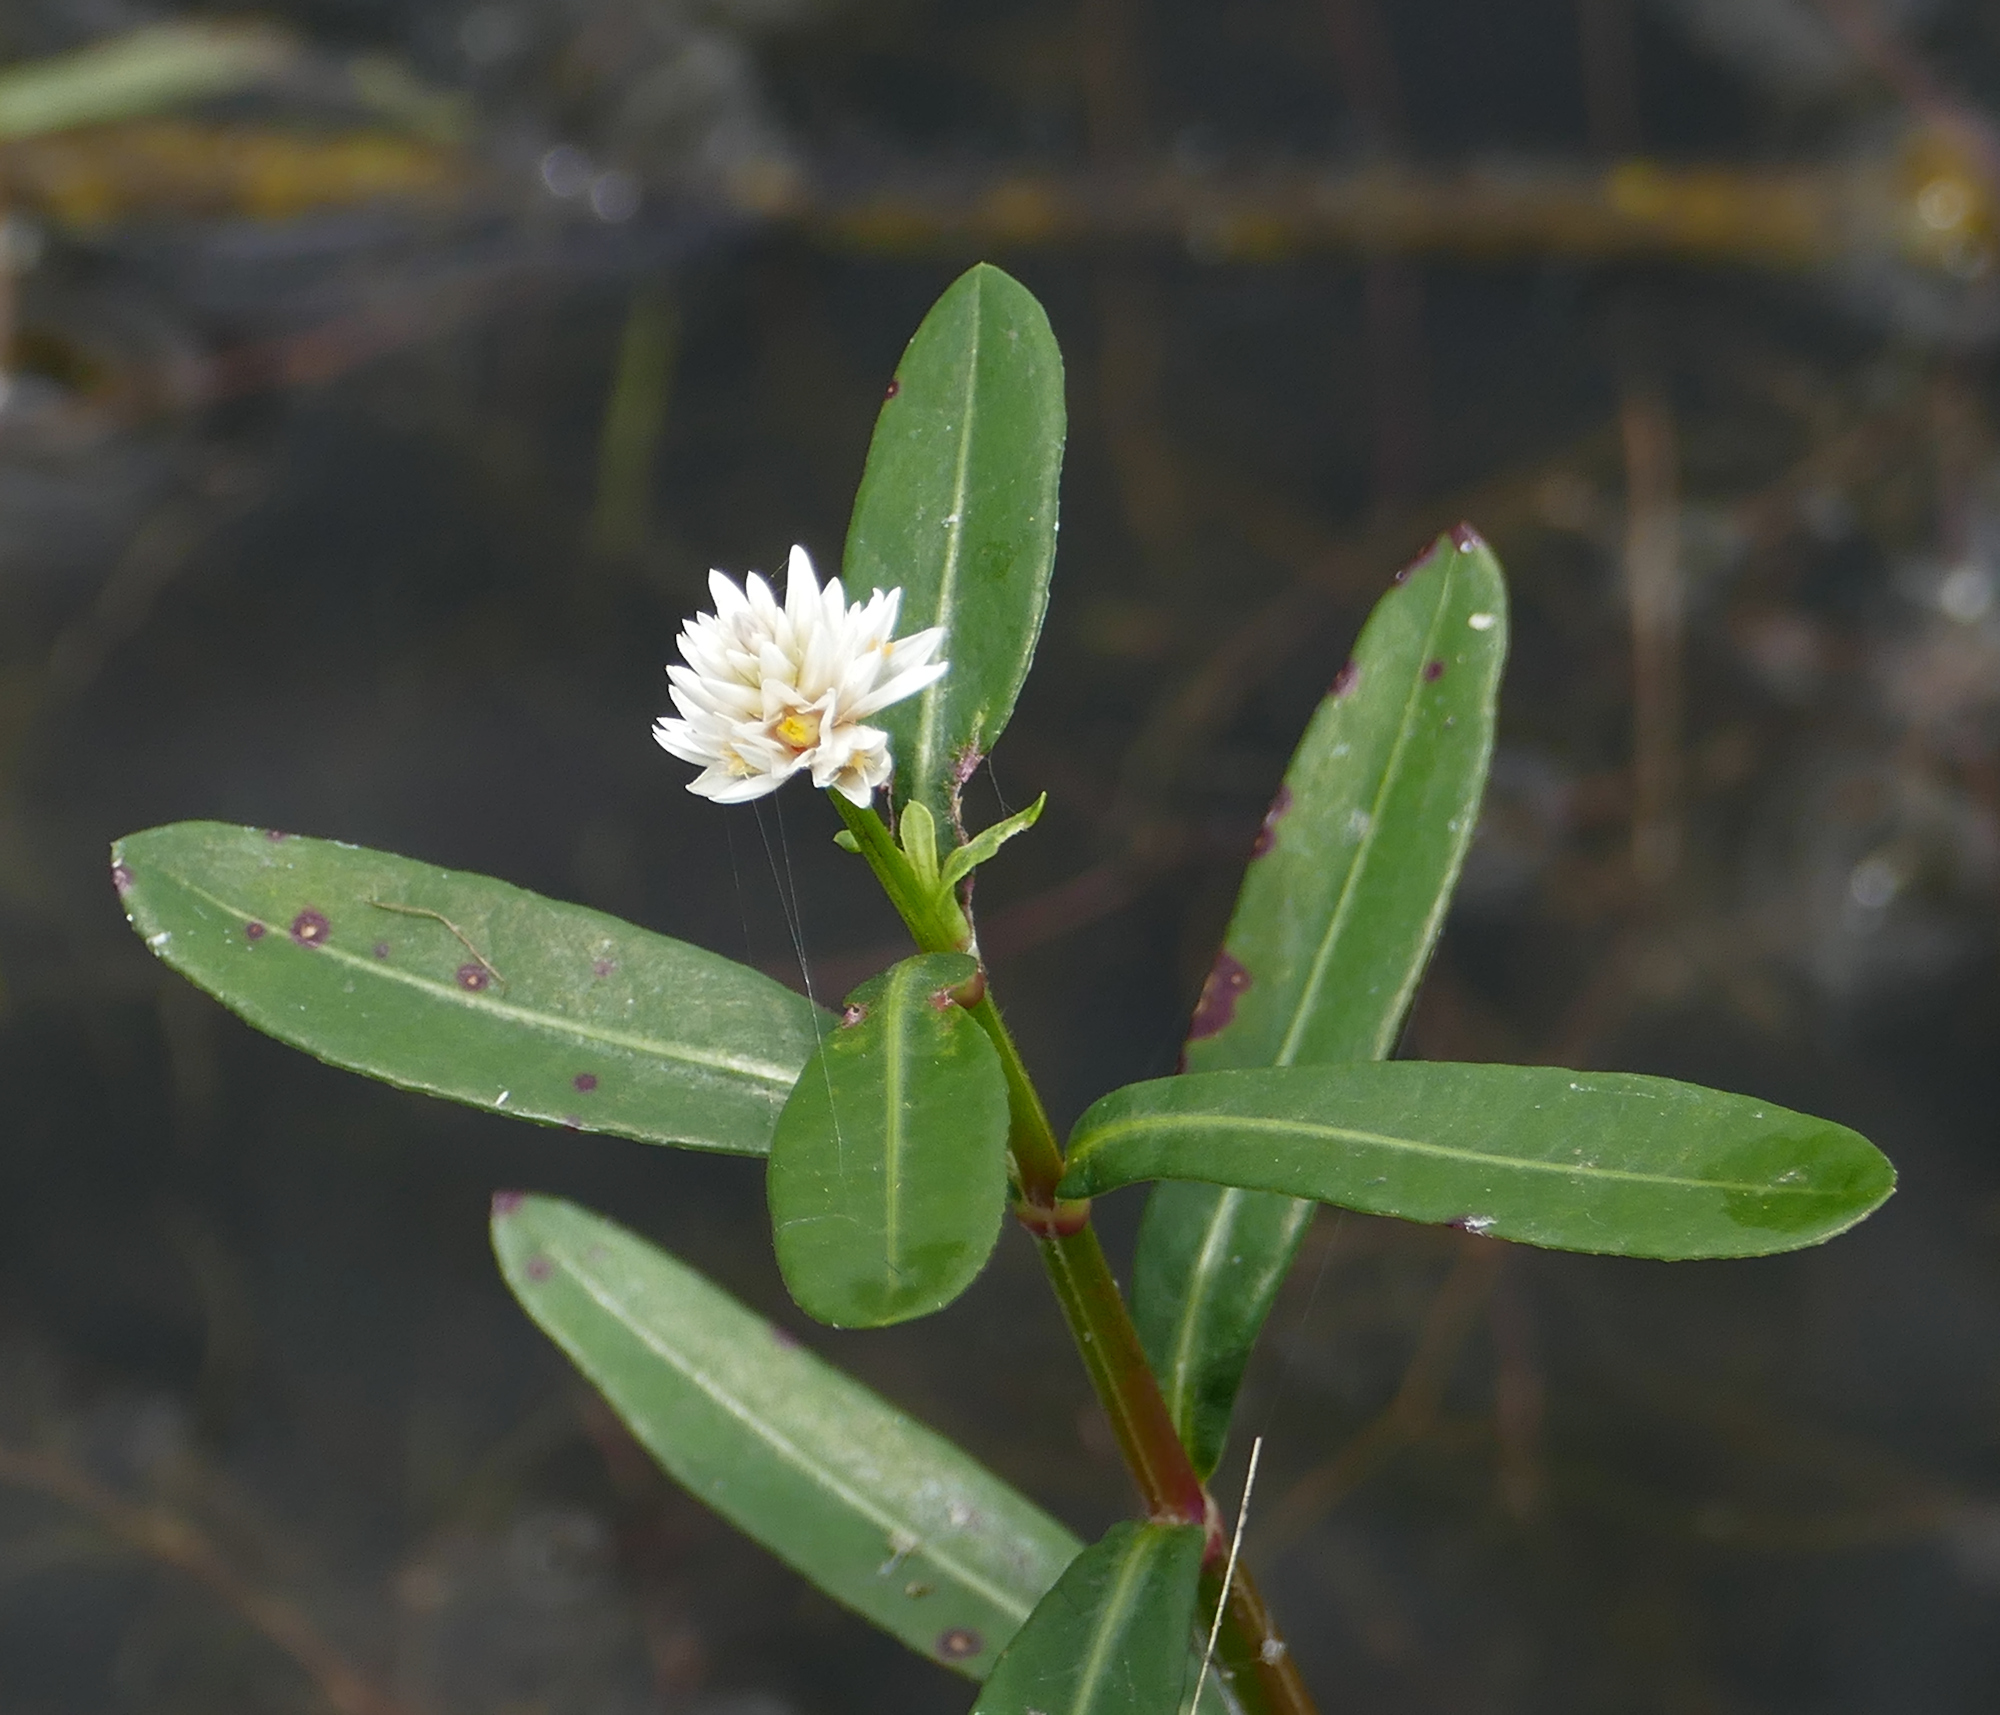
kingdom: Plantae
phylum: Tracheophyta
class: Magnoliopsida
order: Caryophyllales
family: Amaranthaceae
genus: Alternanthera
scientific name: Alternanthera philoxeroides
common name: Alligatorweed
